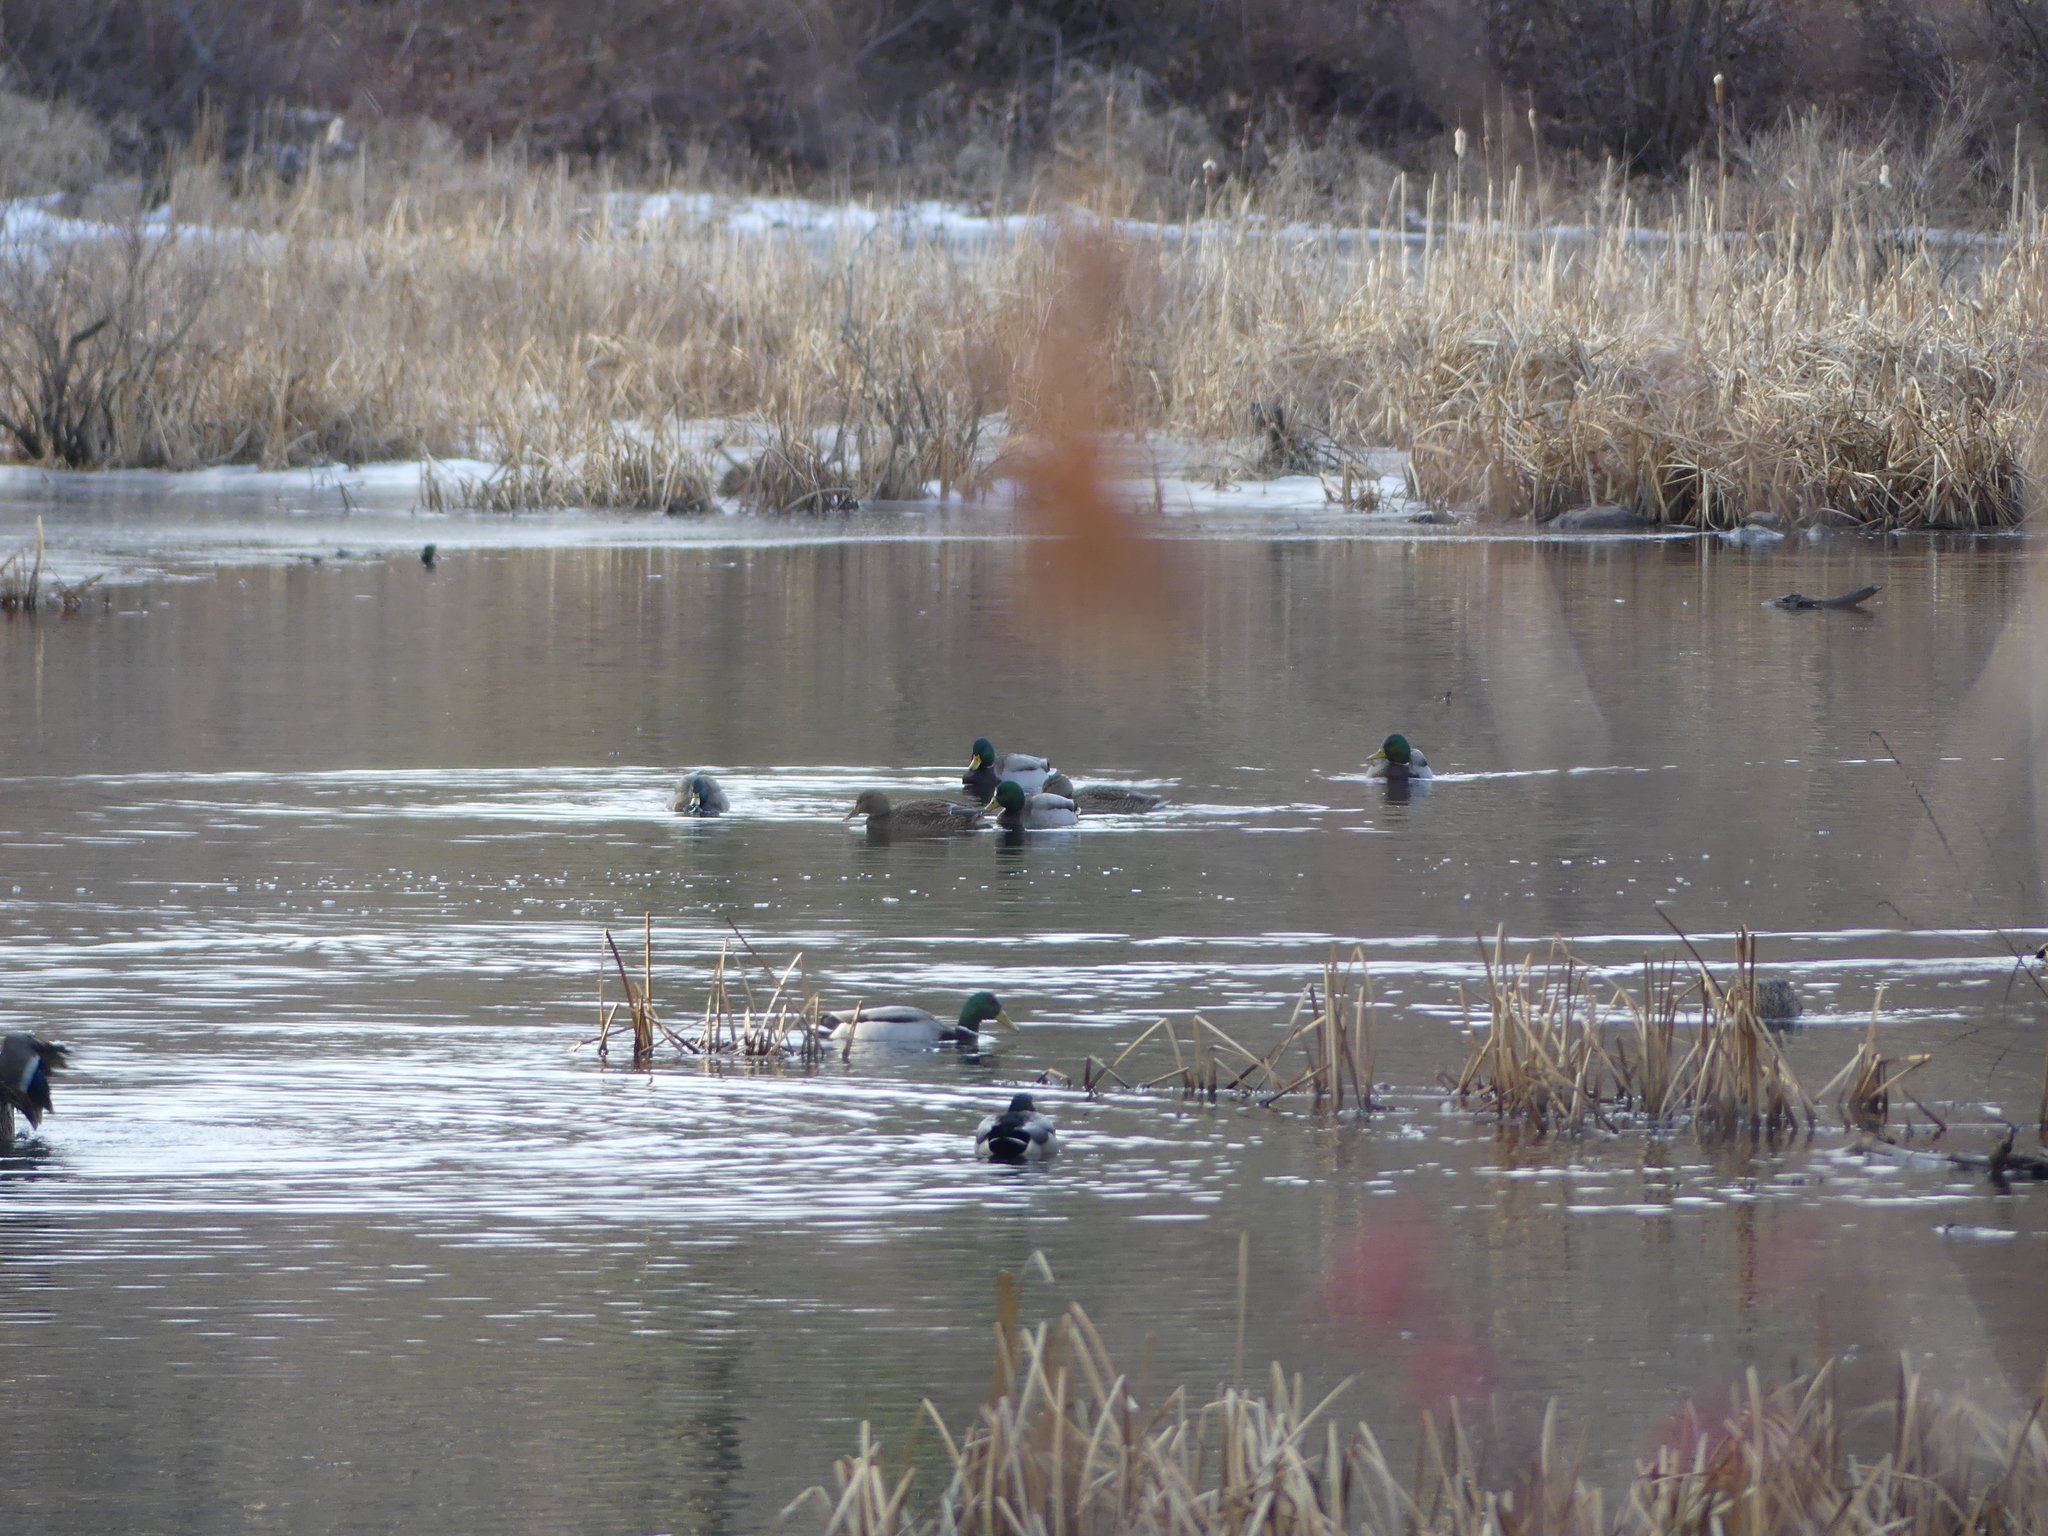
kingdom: Animalia
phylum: Chordata
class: Aves
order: Anseriformes
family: Anatidae
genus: Anas
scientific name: Anas platyrhynchos
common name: Mallard
